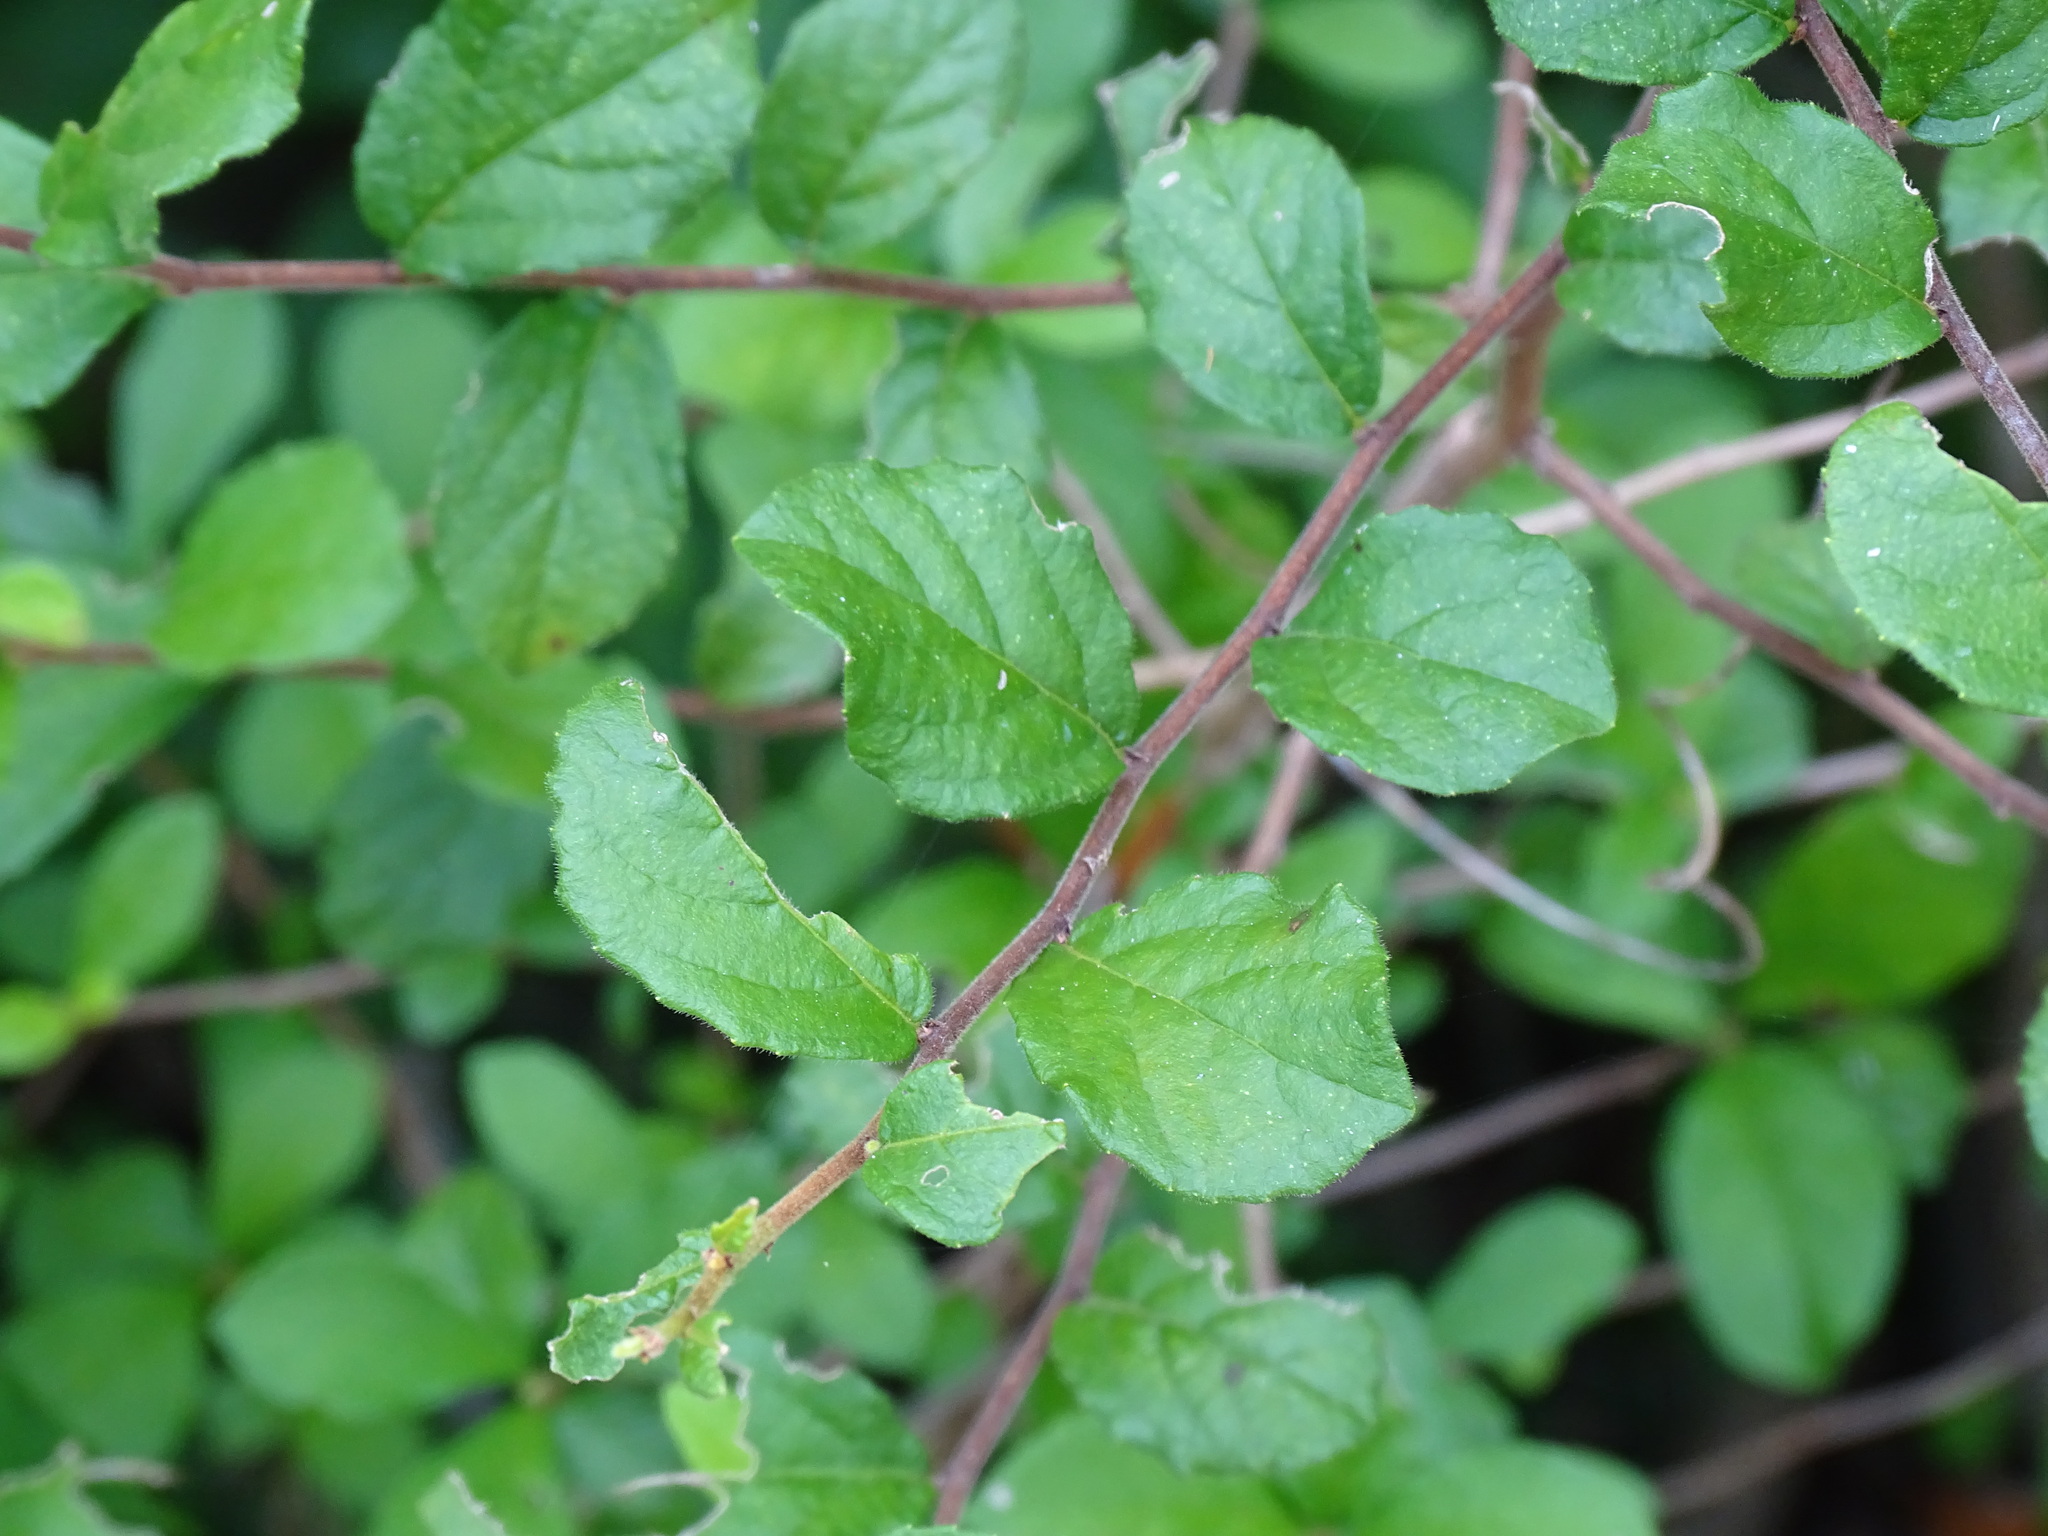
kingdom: Plantae
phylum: Tracheophyta
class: Magnoliopsida
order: Malpighiales
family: Salicaceae
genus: Casearia
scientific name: Casearia yucatanensis
